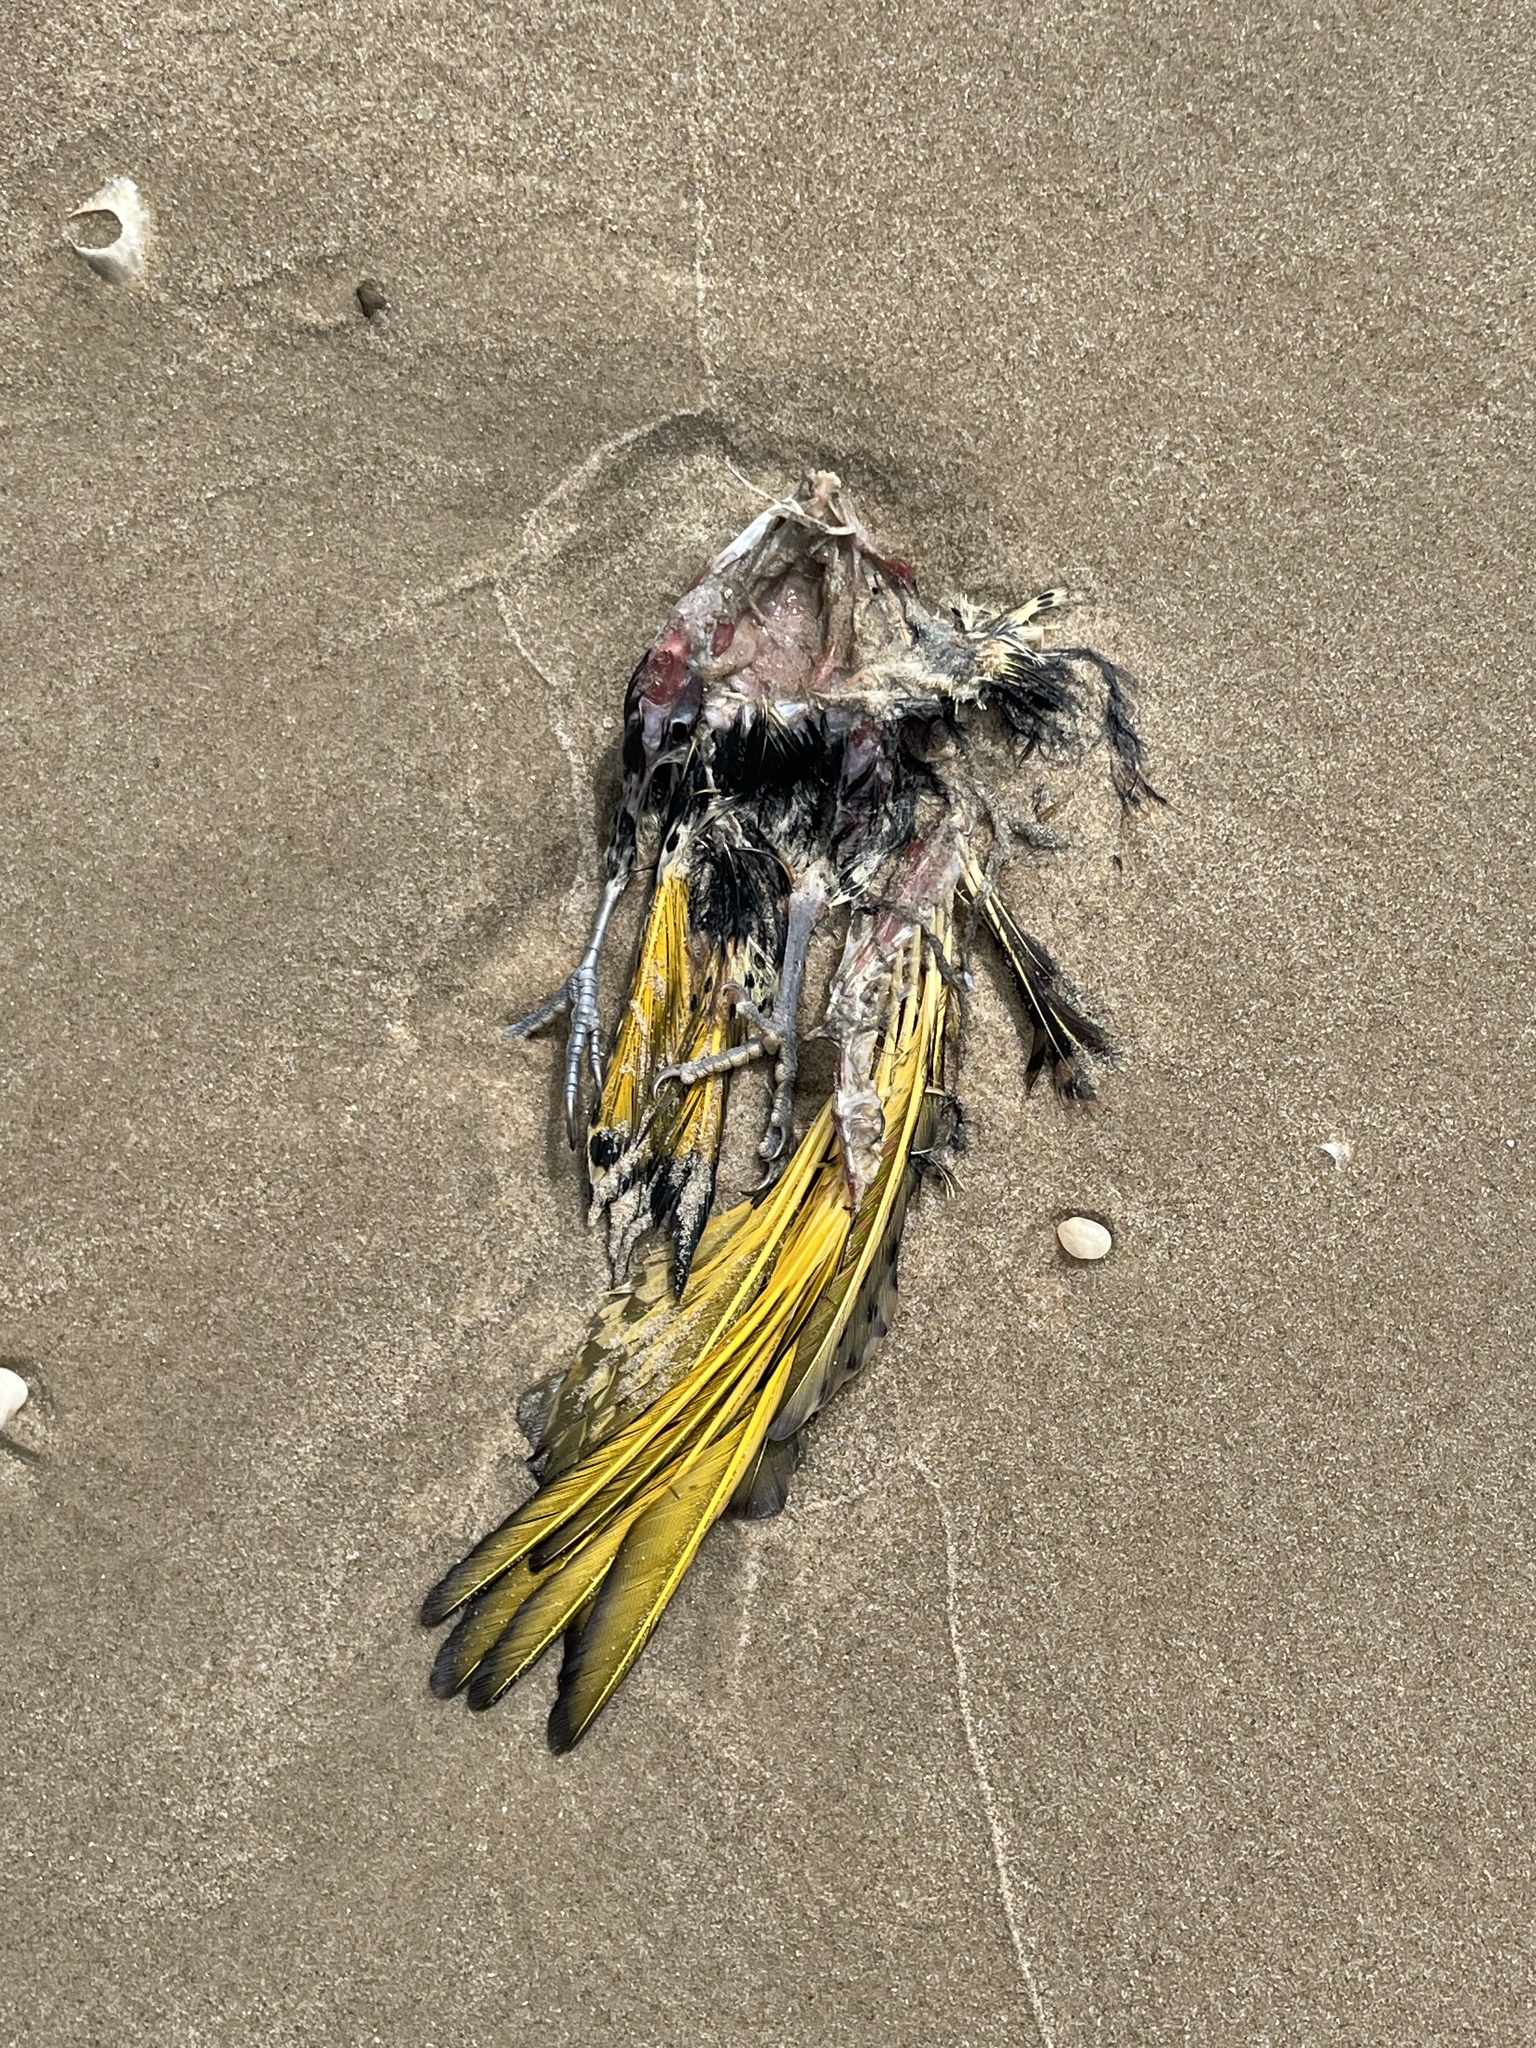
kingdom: Animalia
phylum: Chordata
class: Aves
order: Piciformes
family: Picidae
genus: Colaptes
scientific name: Colaptes auratus
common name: Northern flicker
